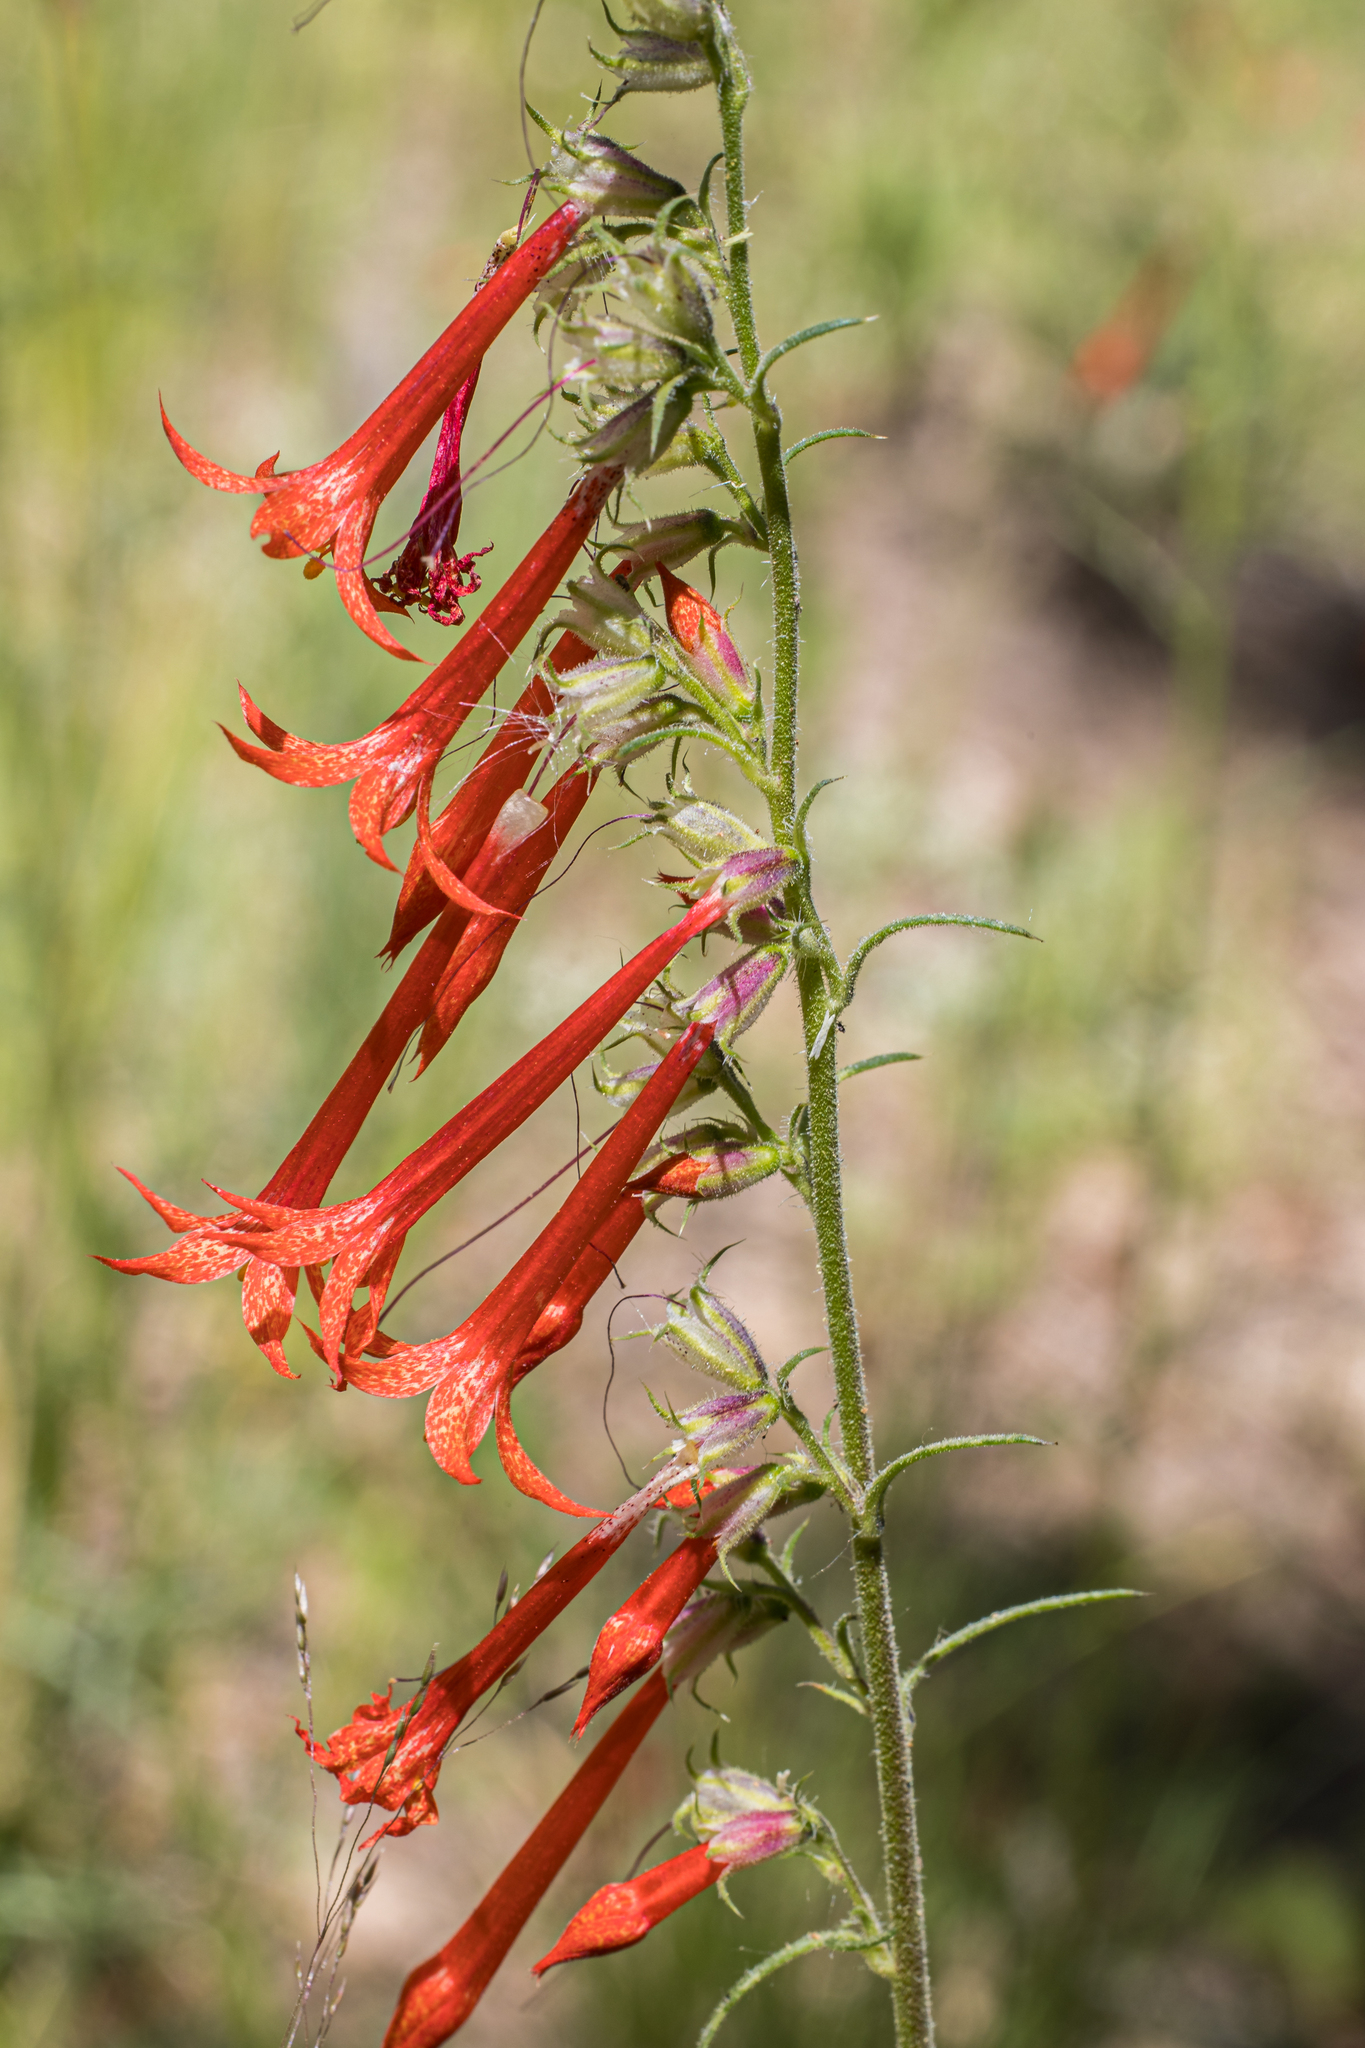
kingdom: Plantae
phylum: Tracheophyta
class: Magnoliopsida
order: Ericales
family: Polemoniaceae
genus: Ipomopsis
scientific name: Ipomopsis aggregata
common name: Scarlet gilia
